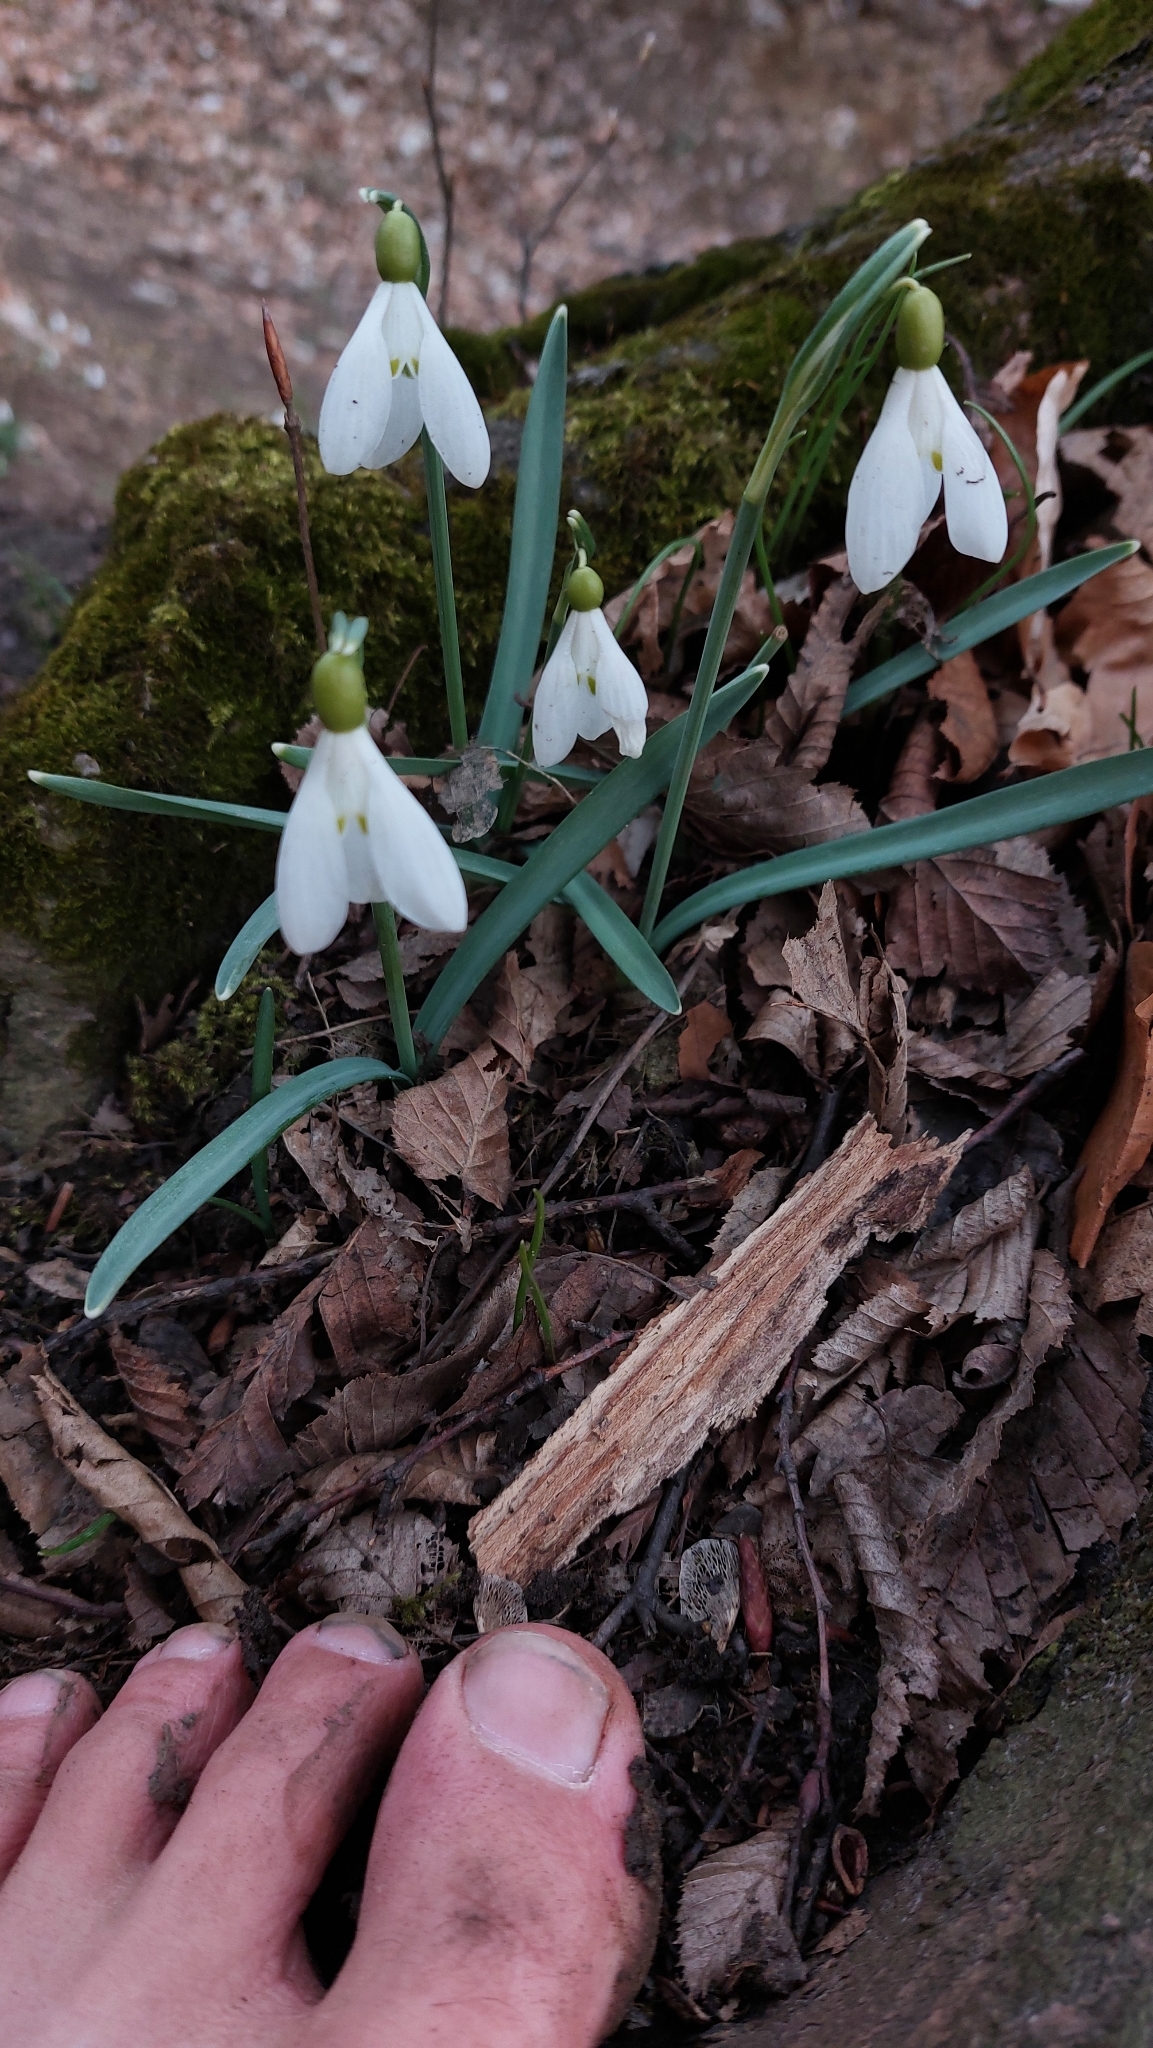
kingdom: Plantae
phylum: Tracheophyta
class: Liliopsida
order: Asparagales
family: Amaryllidaceae
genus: Galanthus
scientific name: Galanthus nivalis
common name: Snowdrop
